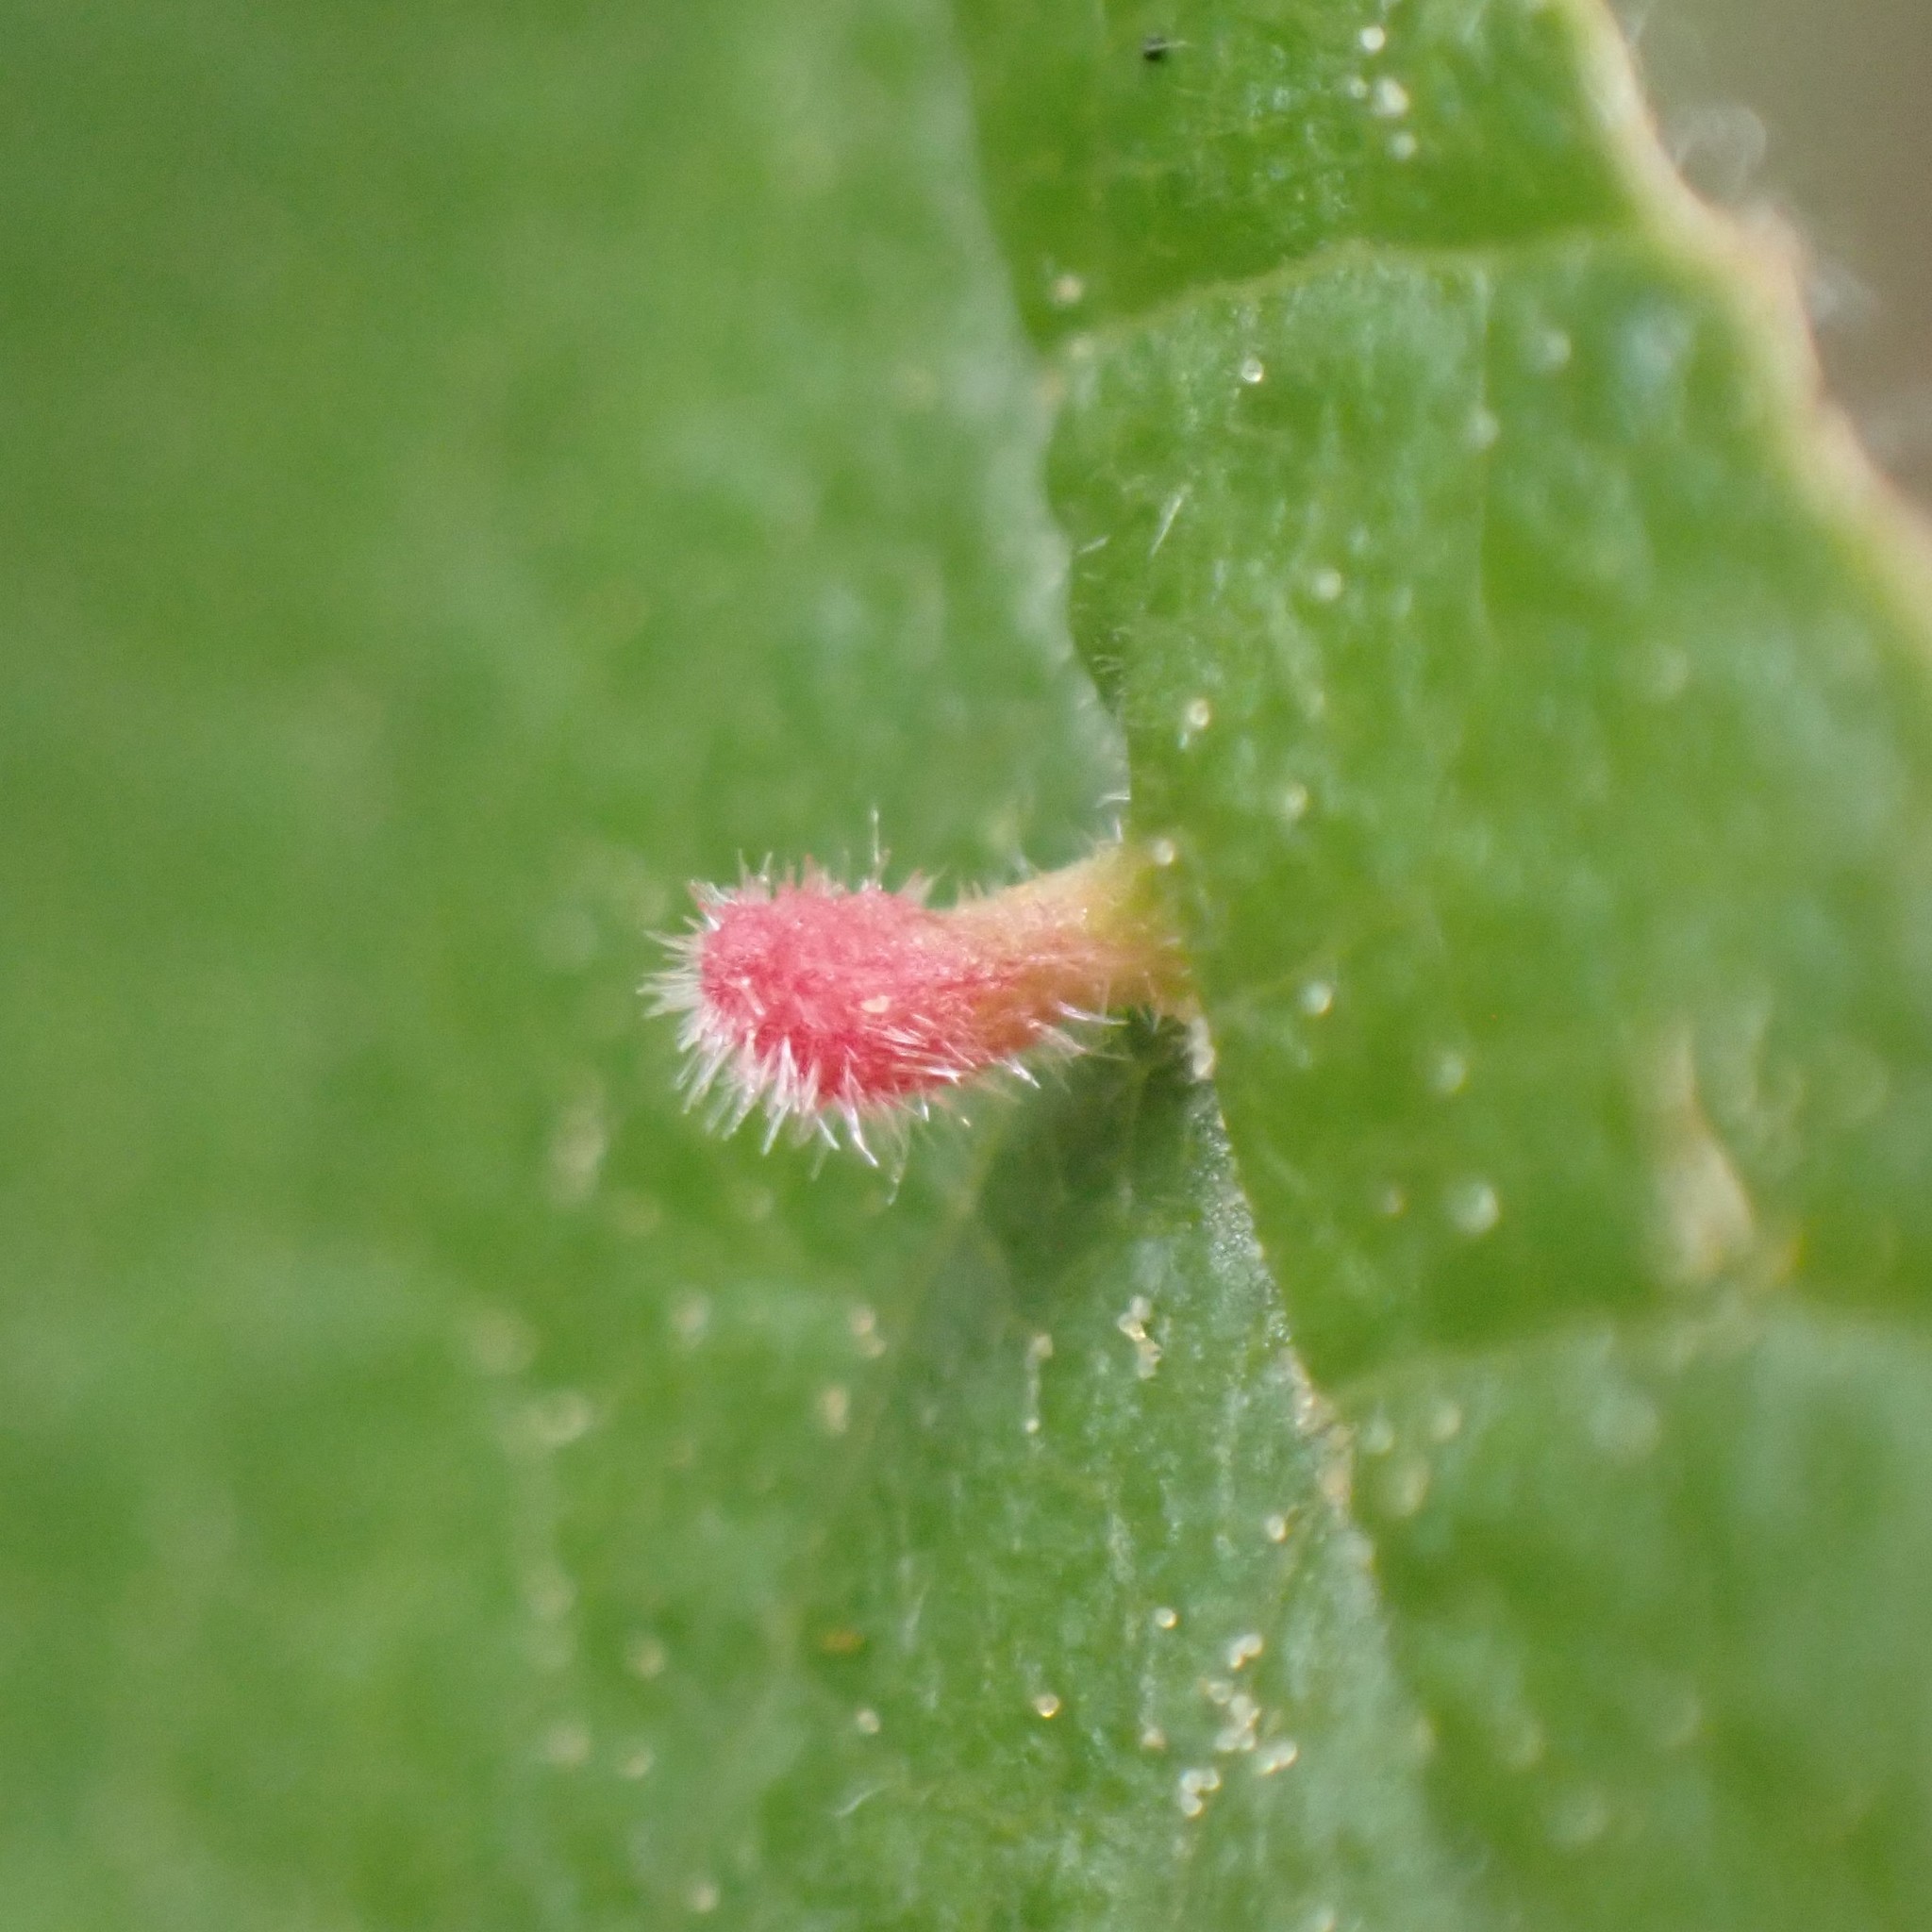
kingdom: Animalia
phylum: Arthropoda
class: Arachnida
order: Trombidiformes
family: Eriophyidae
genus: Eriophyes
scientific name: Eriophyes emarginatae
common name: Plum leaf gall mite
